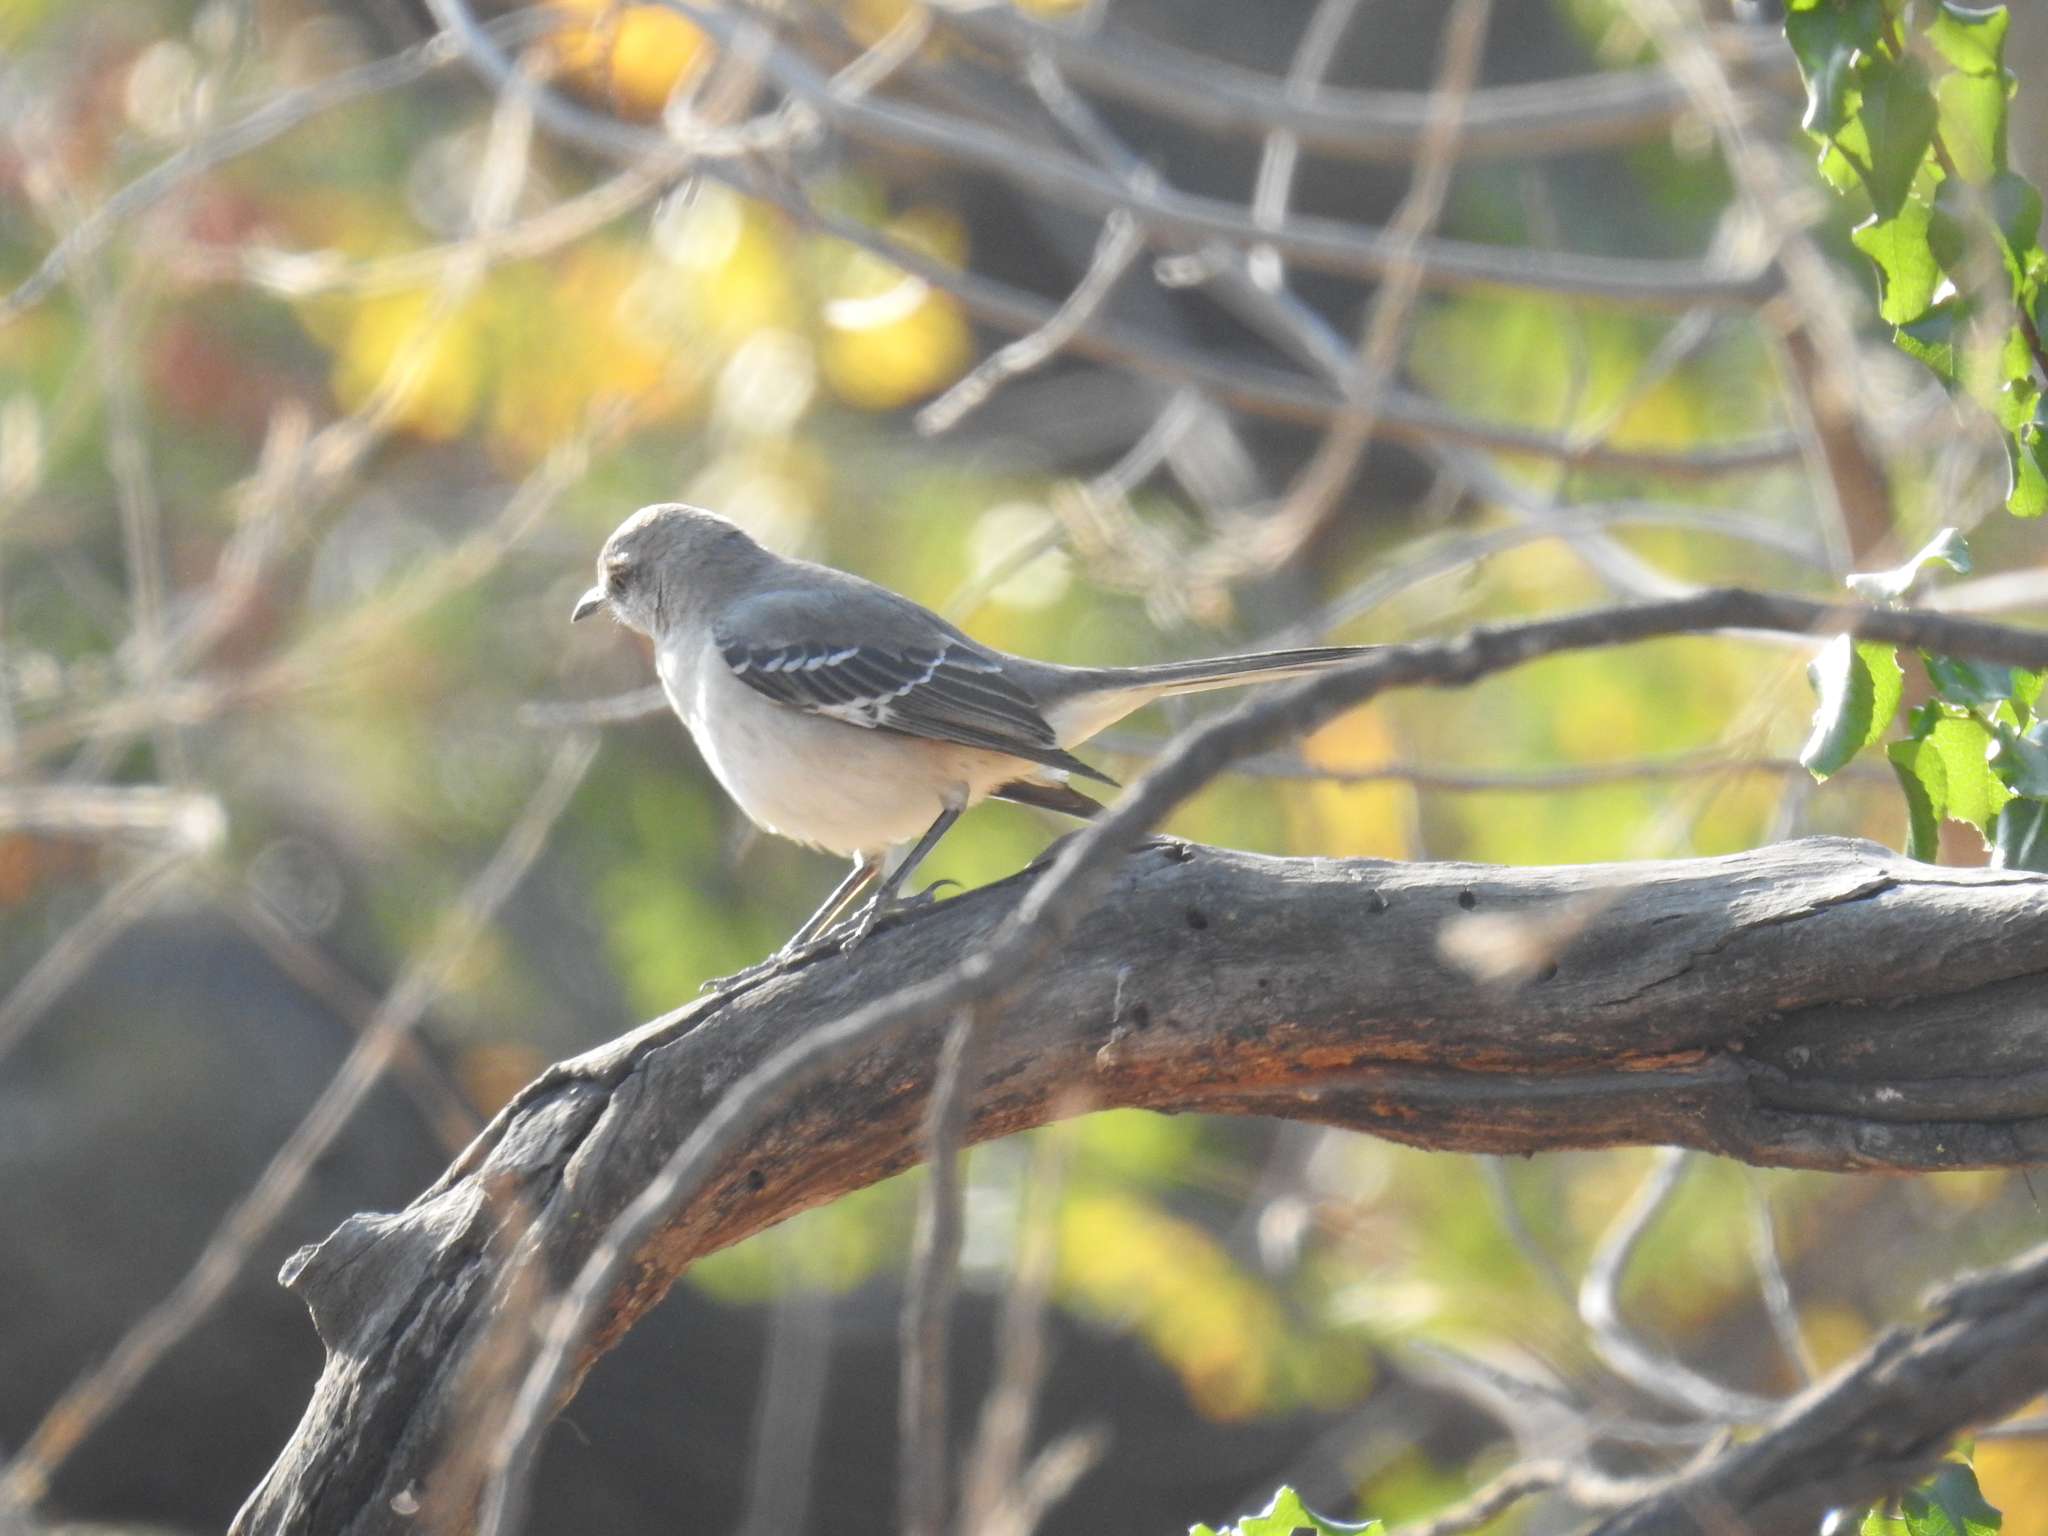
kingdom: Animalia
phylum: Chordata
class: Aves
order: Passeriformes
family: Mimidae
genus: Mimus
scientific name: Mimus polyglottos
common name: Northern mockingbird
